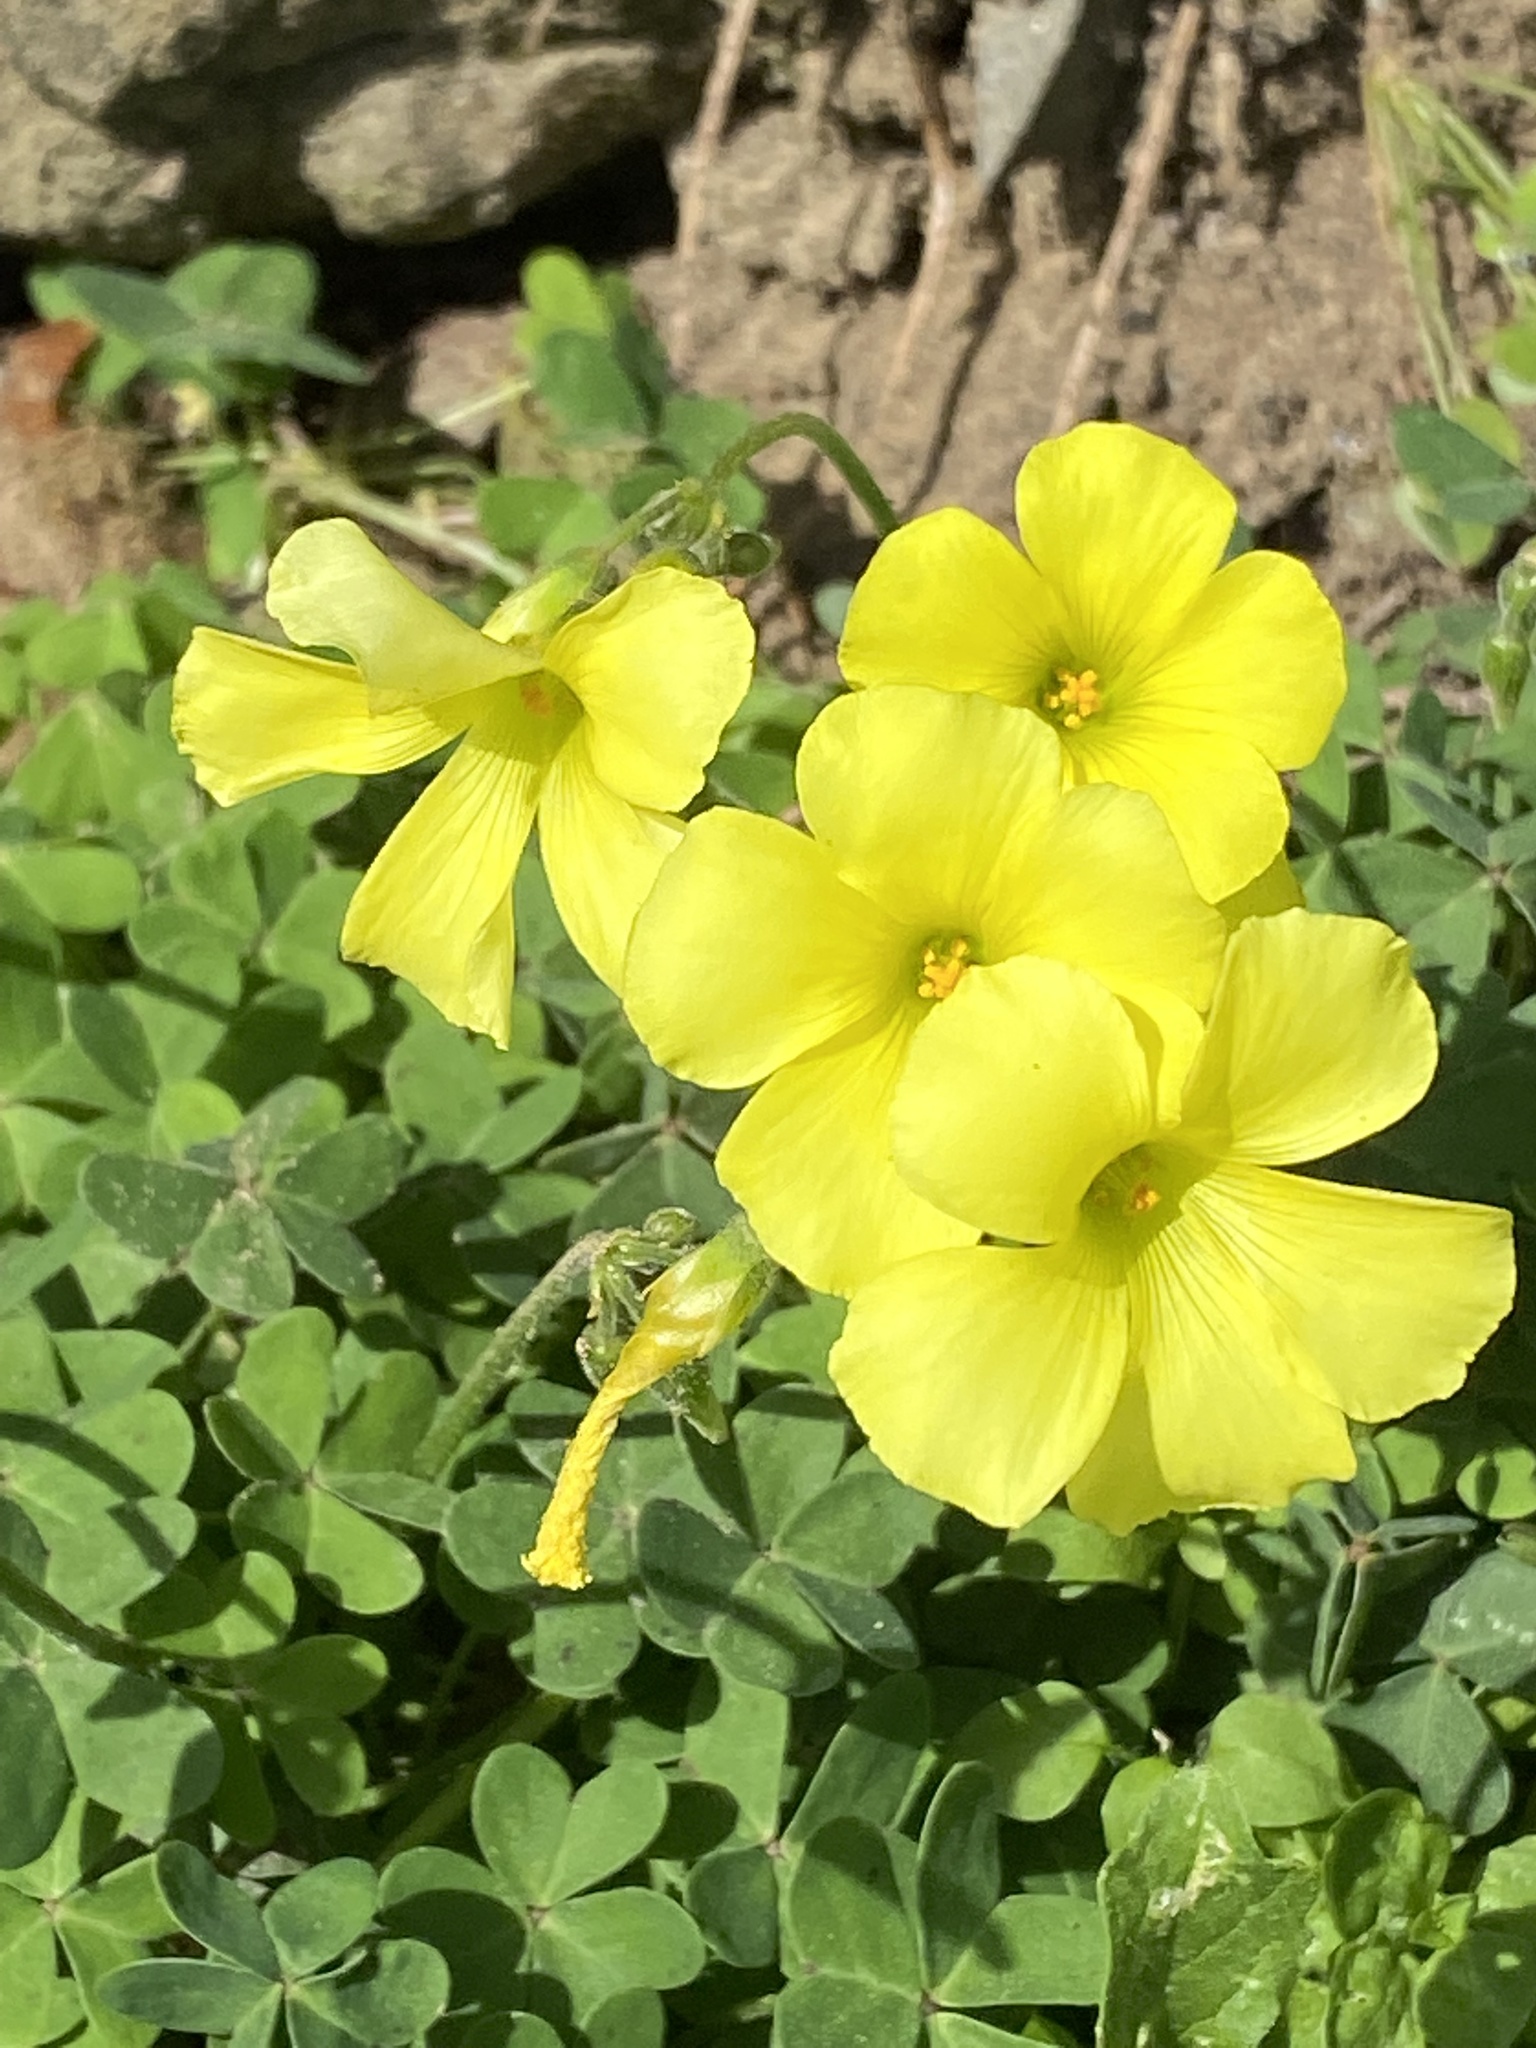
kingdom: Plantae
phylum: Tracheophyta
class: Magnoliopsida
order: Oxalidales
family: Oxalidaceae
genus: Oxalis
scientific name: Oxalis pes-caprae
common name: Bermuda-buttercup
